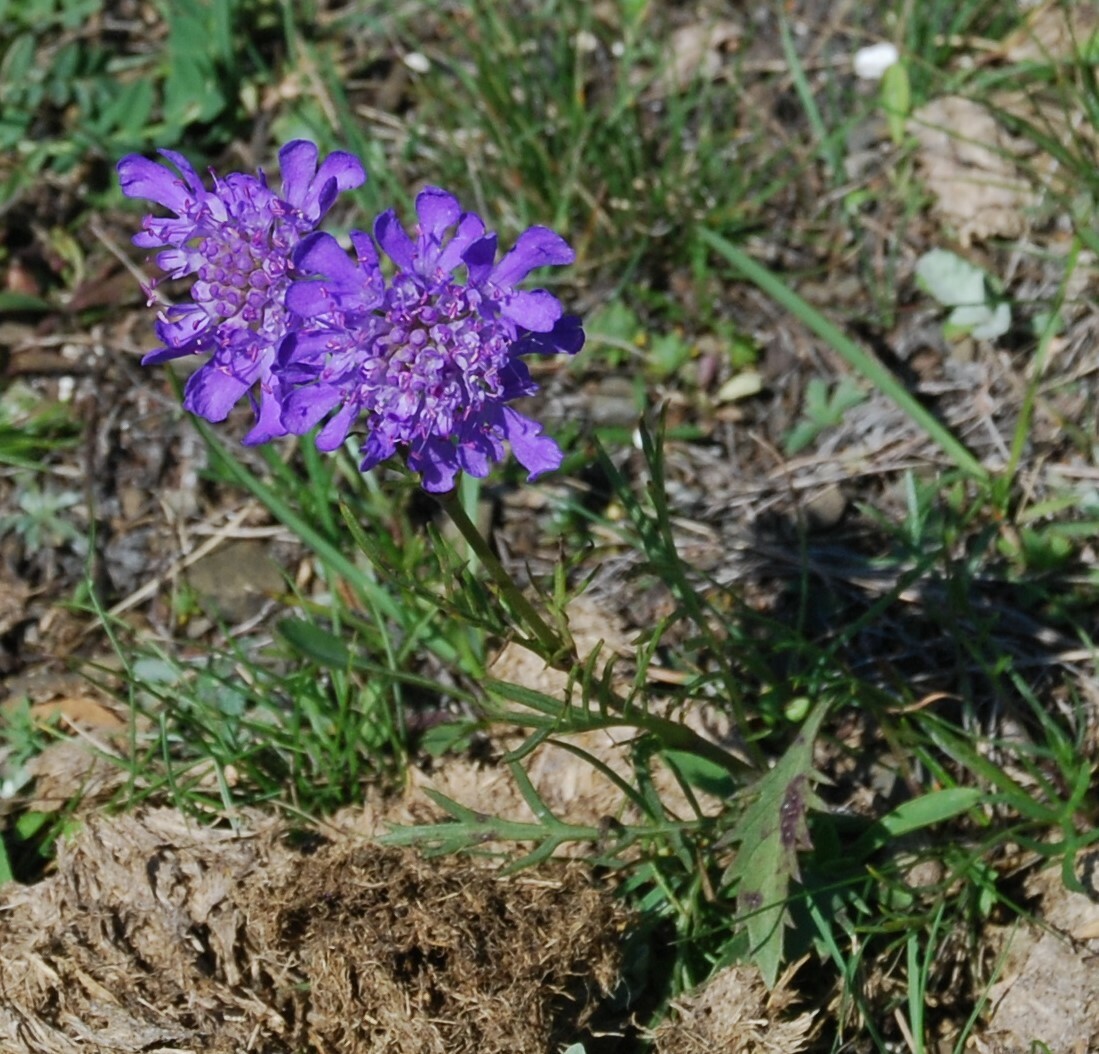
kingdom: Plantae
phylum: Tracheophyta
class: Magnoliopsida
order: Dipsacales
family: Caprifoliaceae
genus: Scabiosa
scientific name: Scabiosa comosa
